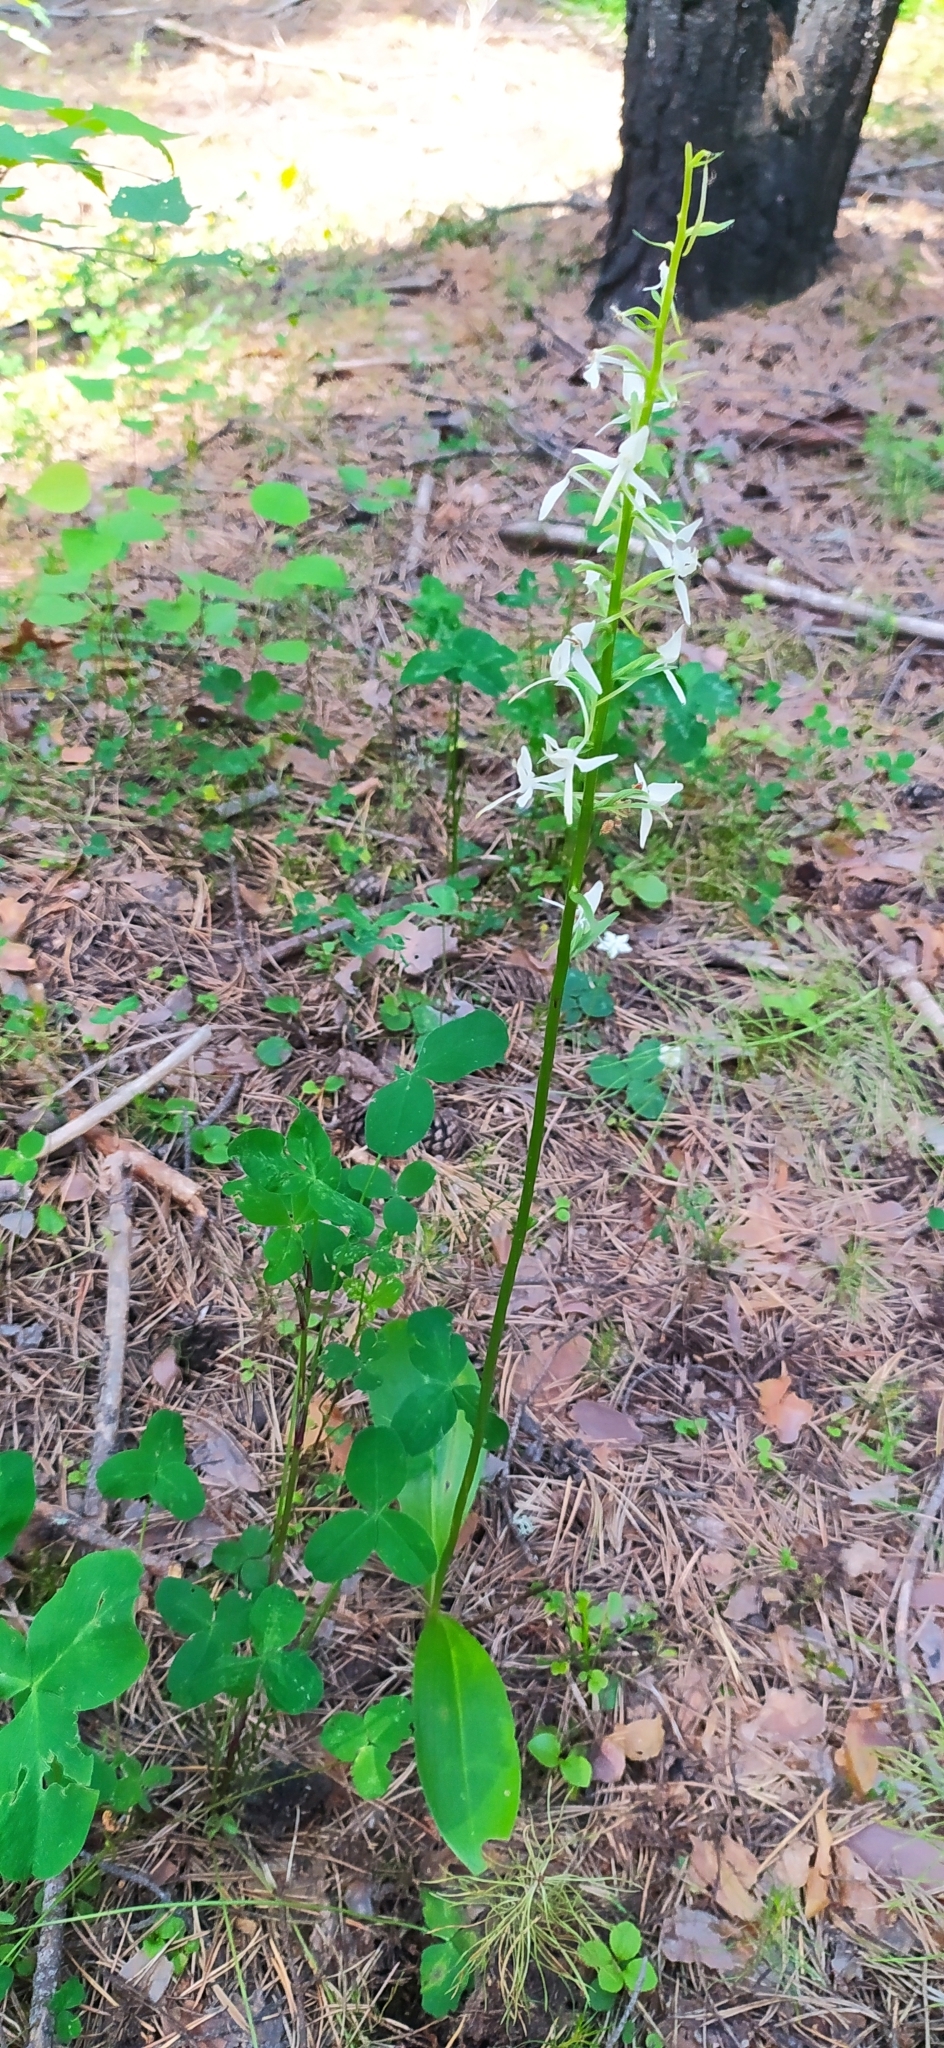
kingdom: Plantae
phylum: Tracheophyta
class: Liliopsida
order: Asparagales
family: Orchidaceae
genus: Platanthera
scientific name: Platanthera bifolia
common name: Lesser butterfly-orchid
